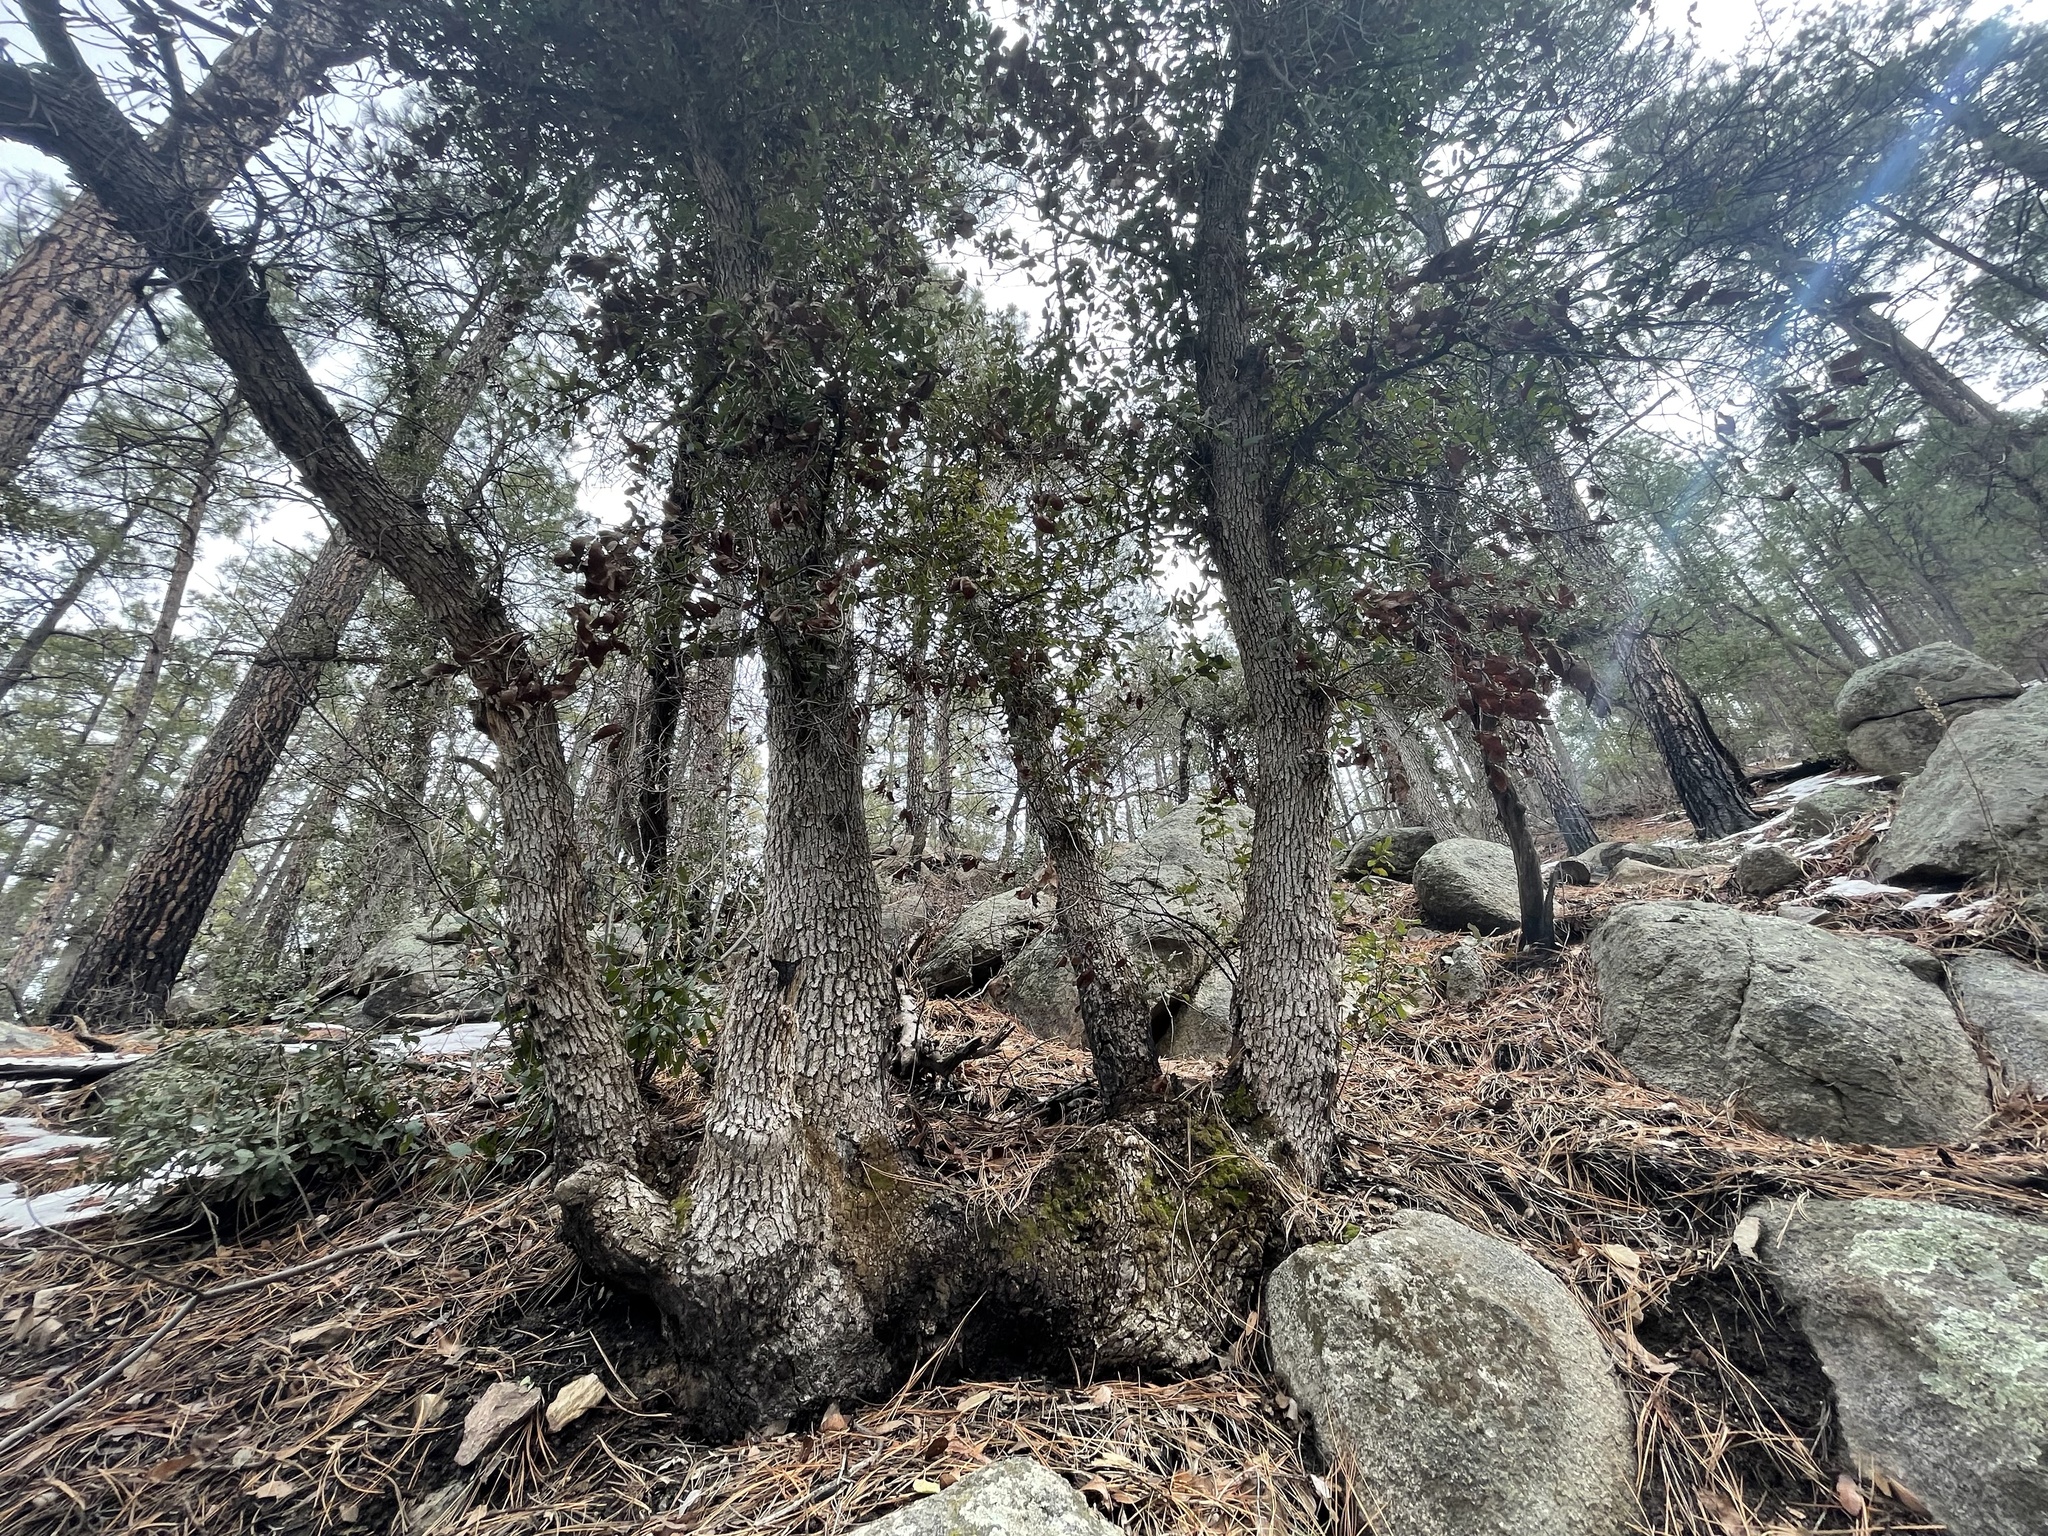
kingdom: Plantae
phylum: Tracheophyta
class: Magnoliopsida
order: Fagales
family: Fagaceae
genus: Quercus
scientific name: Quercus arizonica
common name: Arizona white oak
